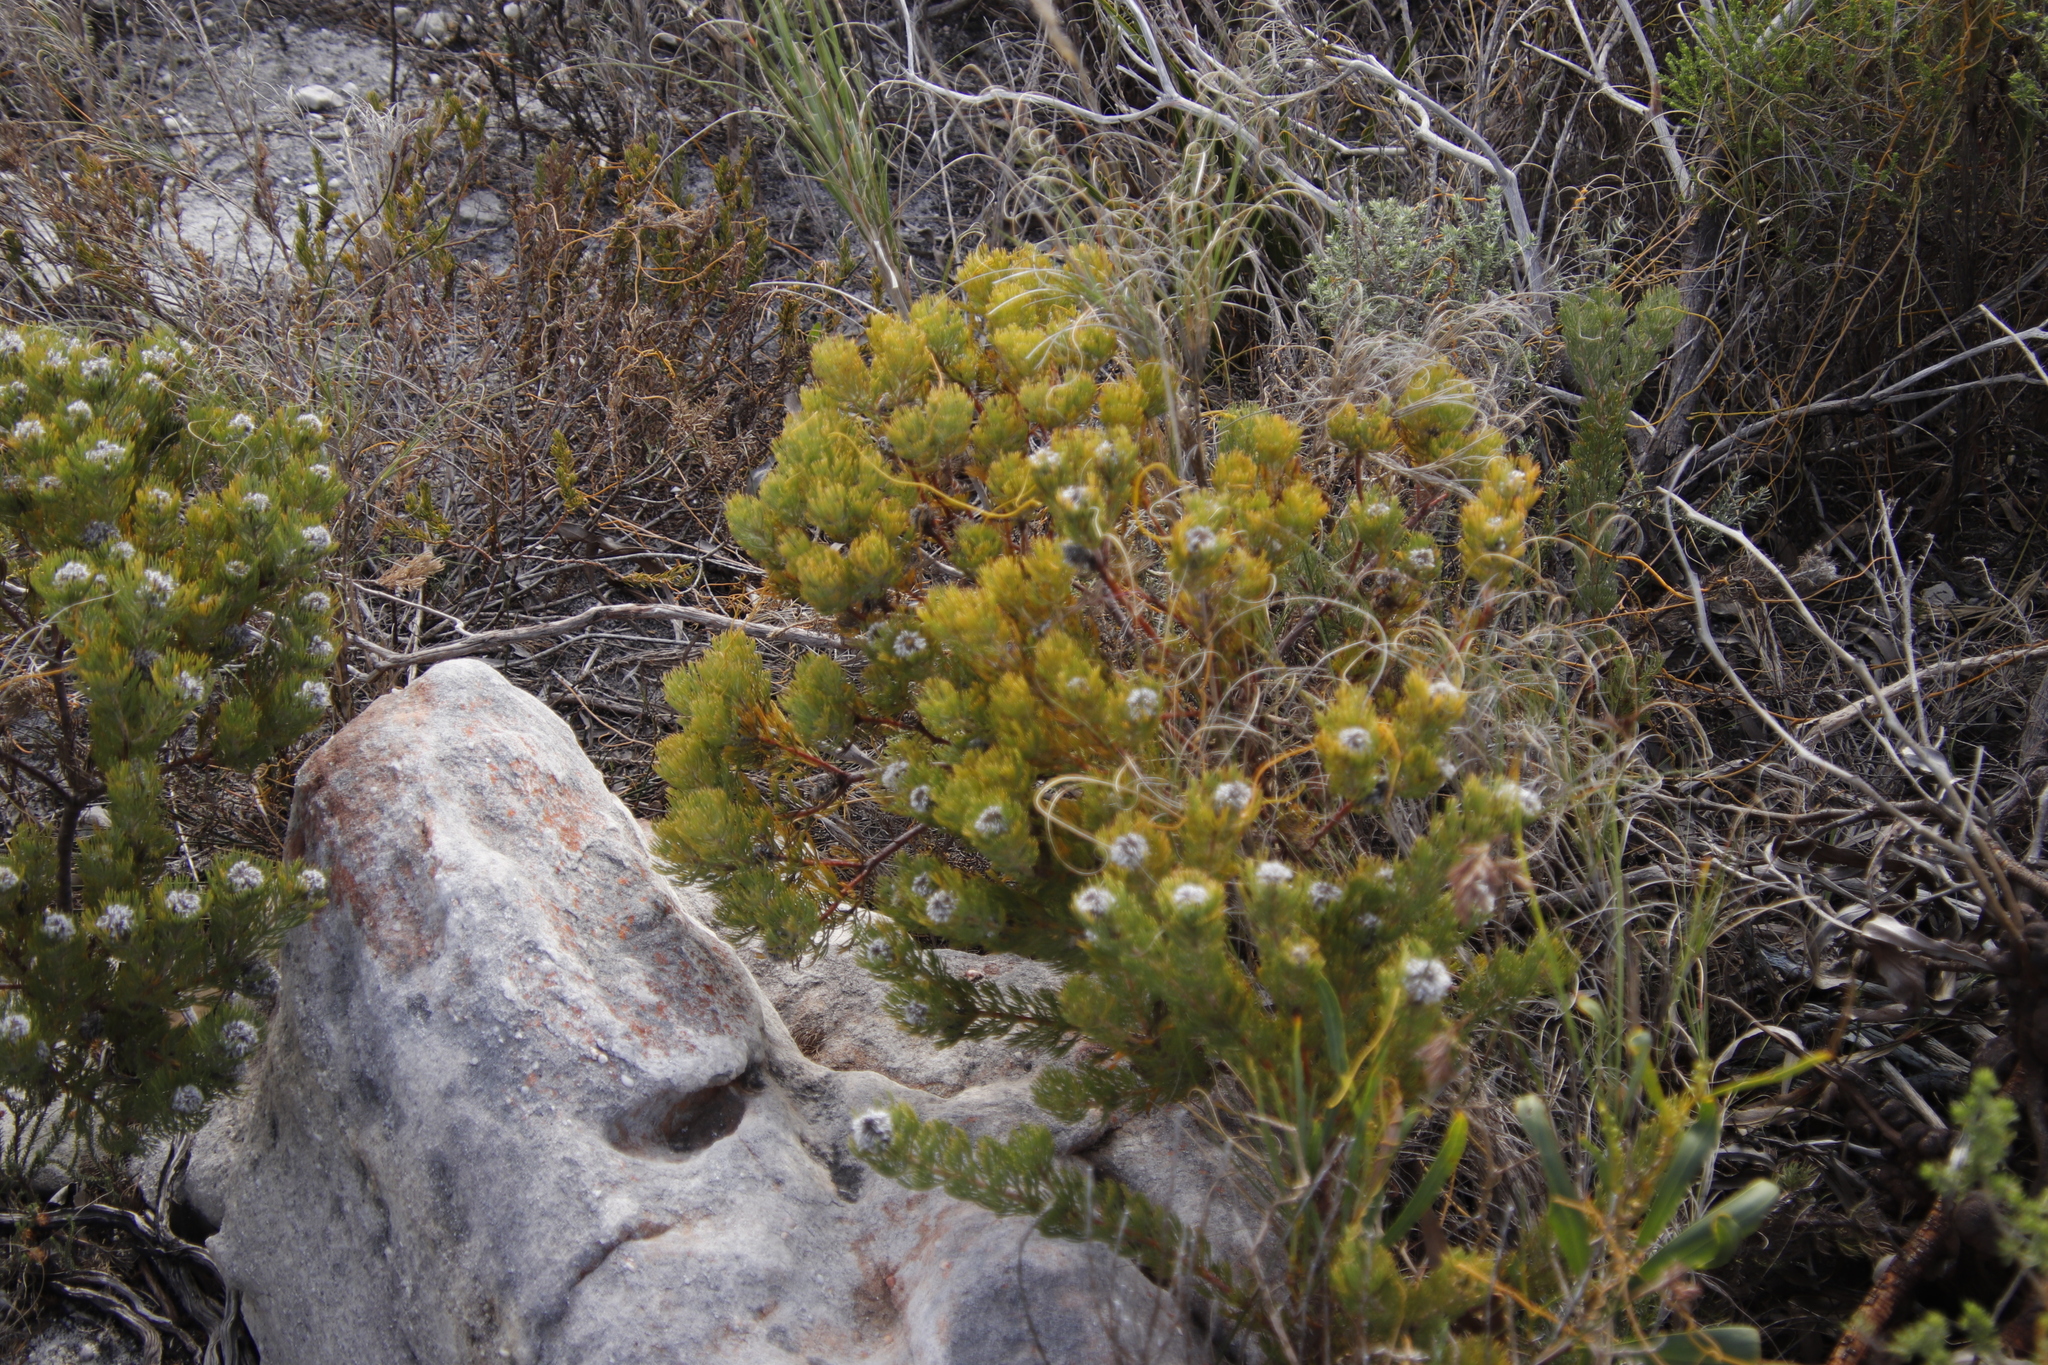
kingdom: Plantae
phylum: Tracheophyta
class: Magnoliopsida
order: Proteales
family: Proteaceae
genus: Serruria
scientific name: Serruria villosa
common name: Golden spiderhead
